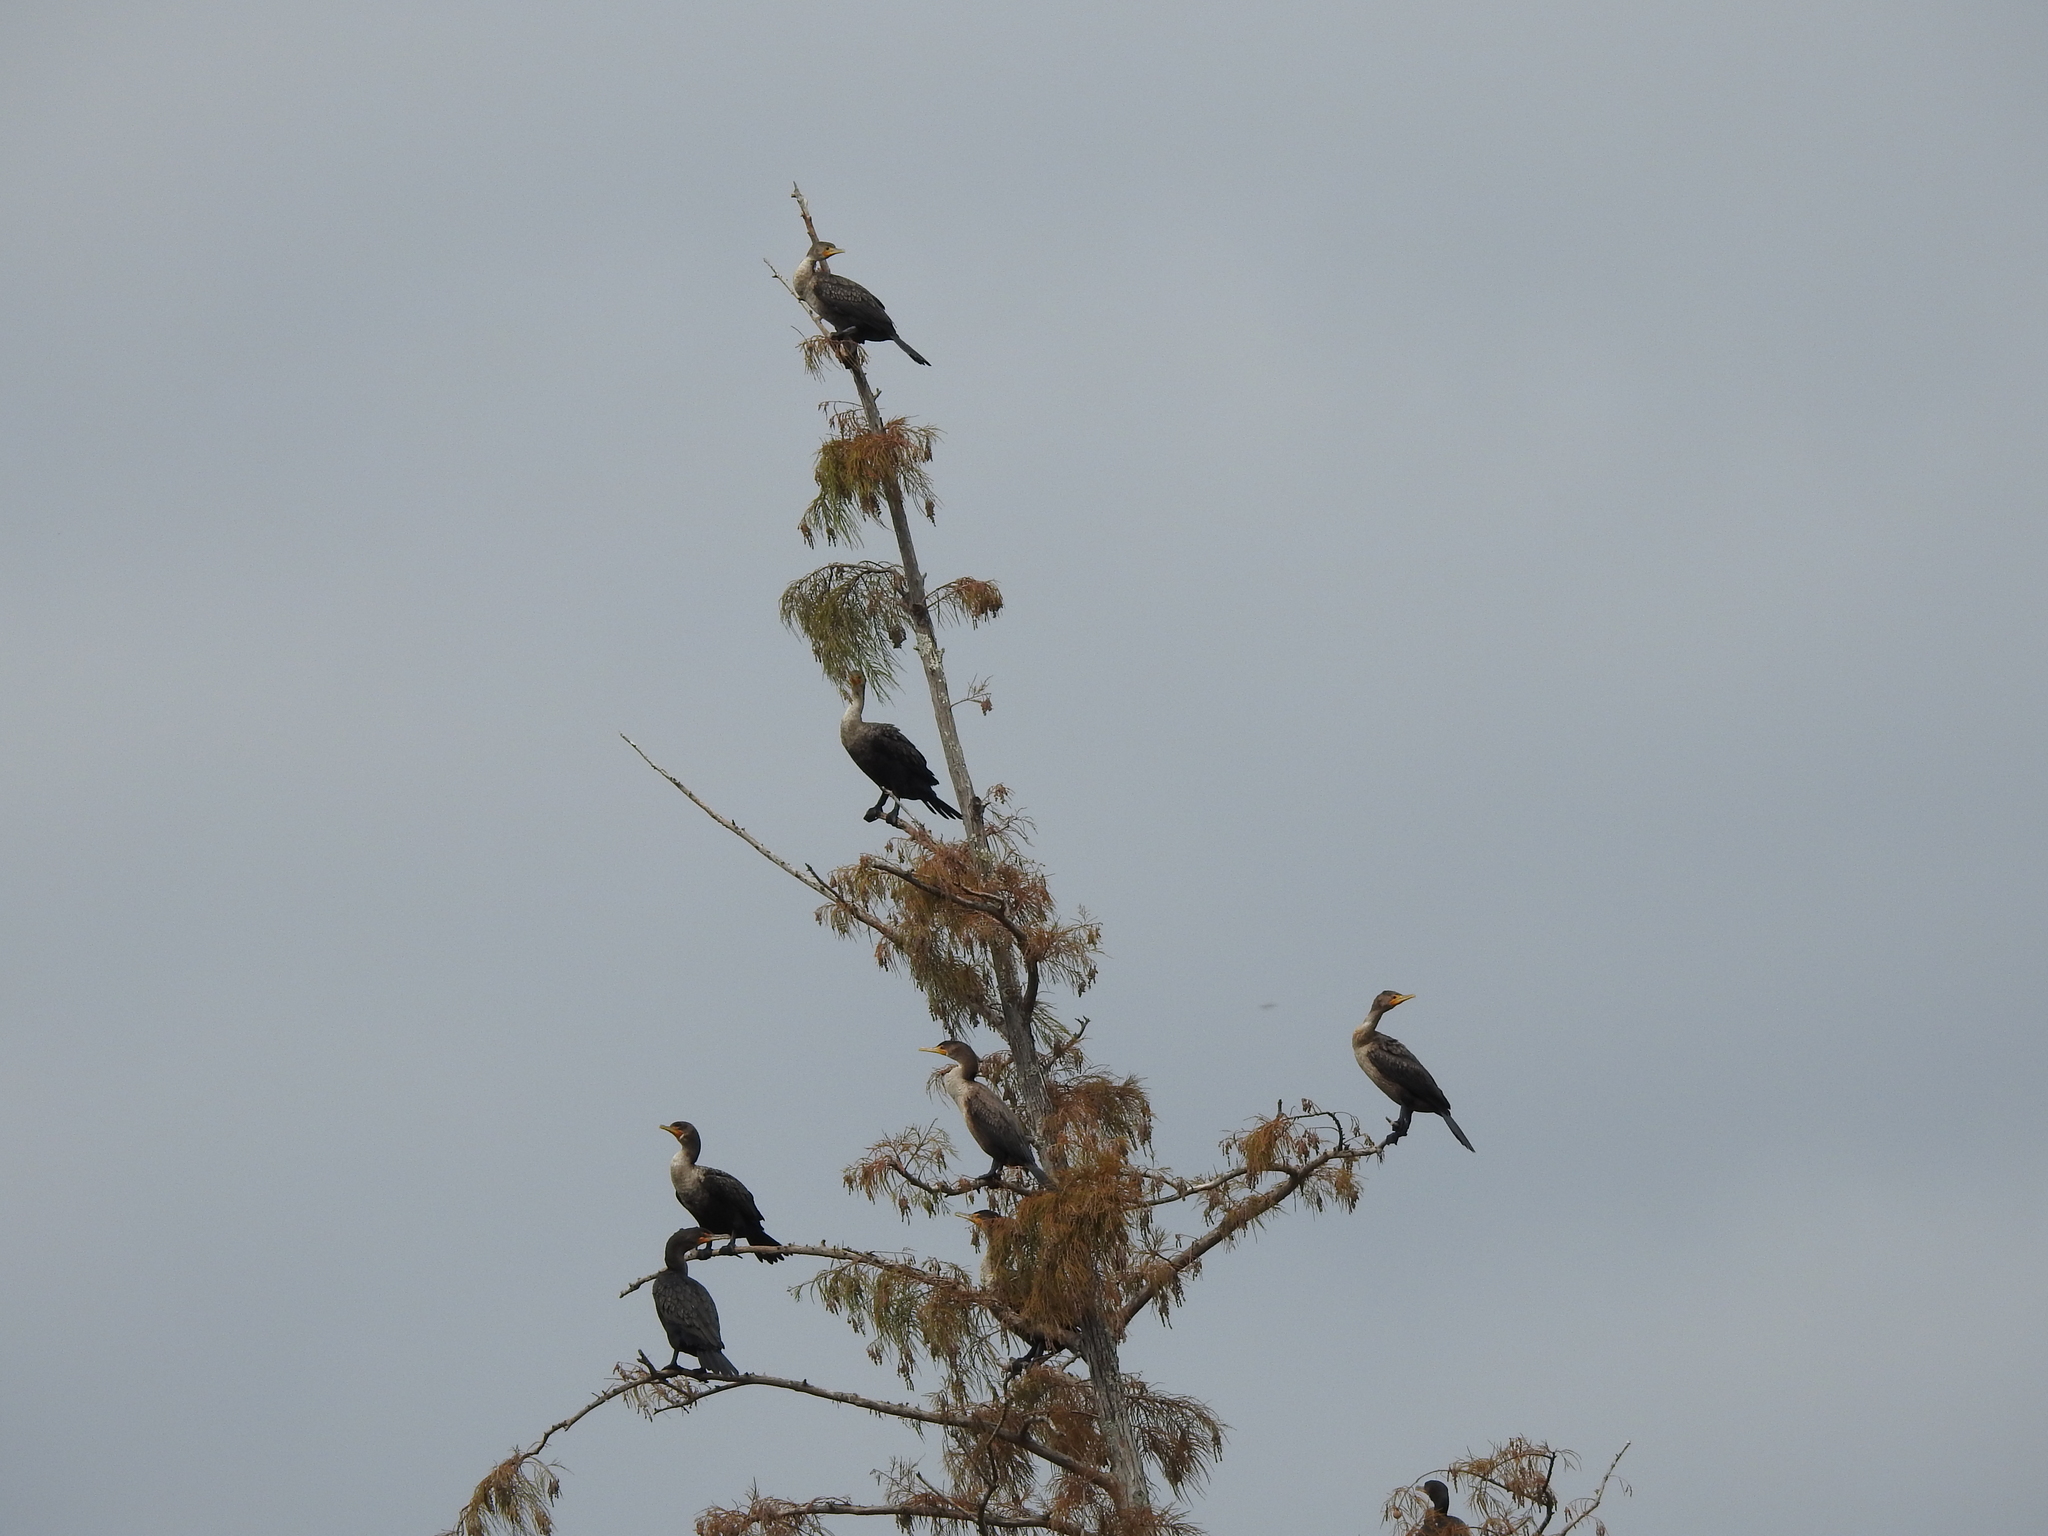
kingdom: Animalia
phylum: Chordata
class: Aves
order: Suliformes
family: Phalacrocoracidae
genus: Phalacrocorax
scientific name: Phalacrocorax auritus
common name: Double-crested cormorant
